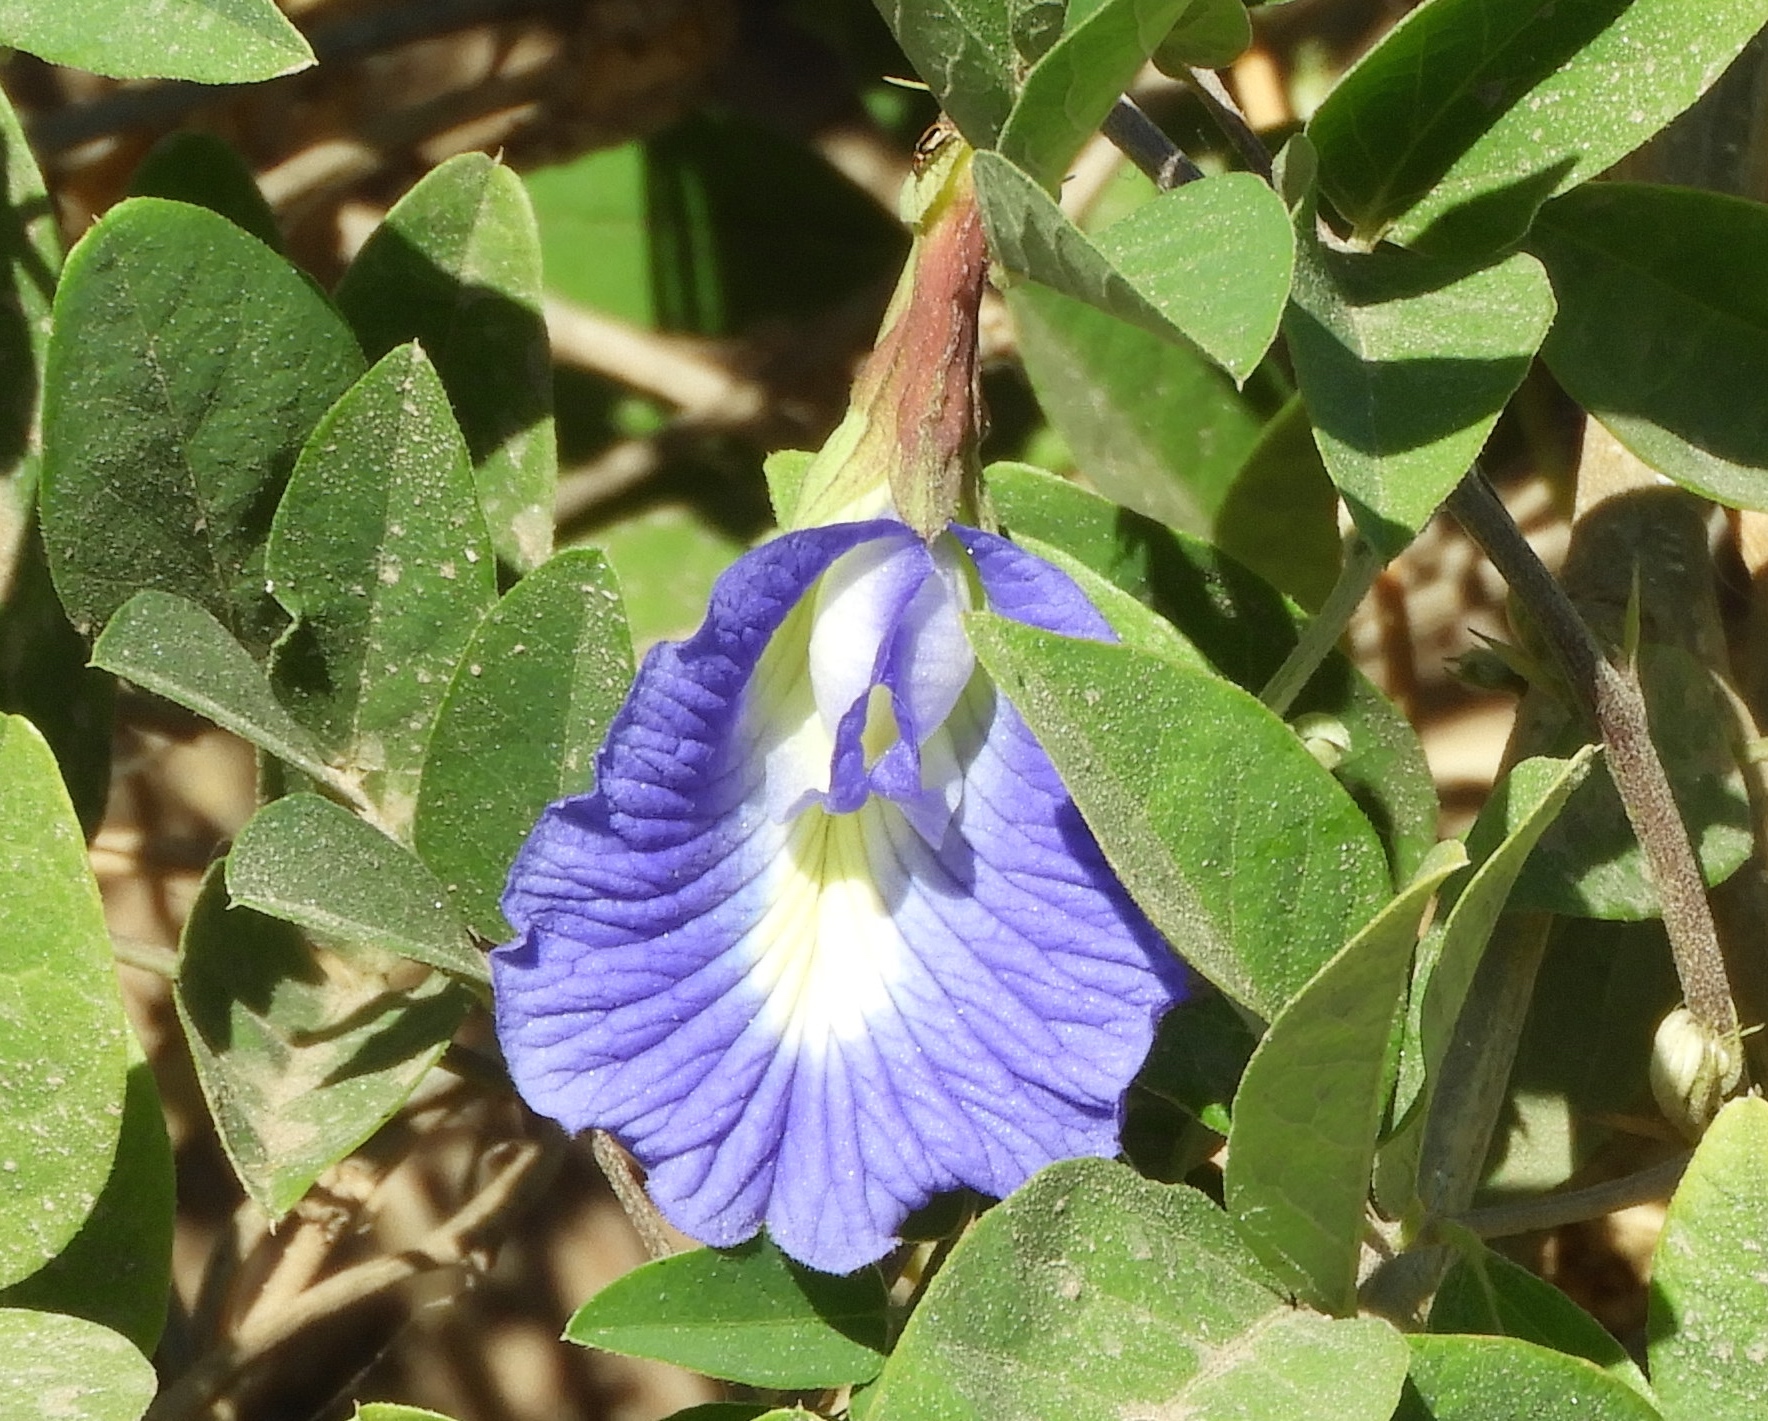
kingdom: Plantae
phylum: Tracheophyta
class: Magnoliopsida
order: Fabales
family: Fabaceae
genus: Clitoria
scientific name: Clitoria ternatea
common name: Asian pigeonwings
